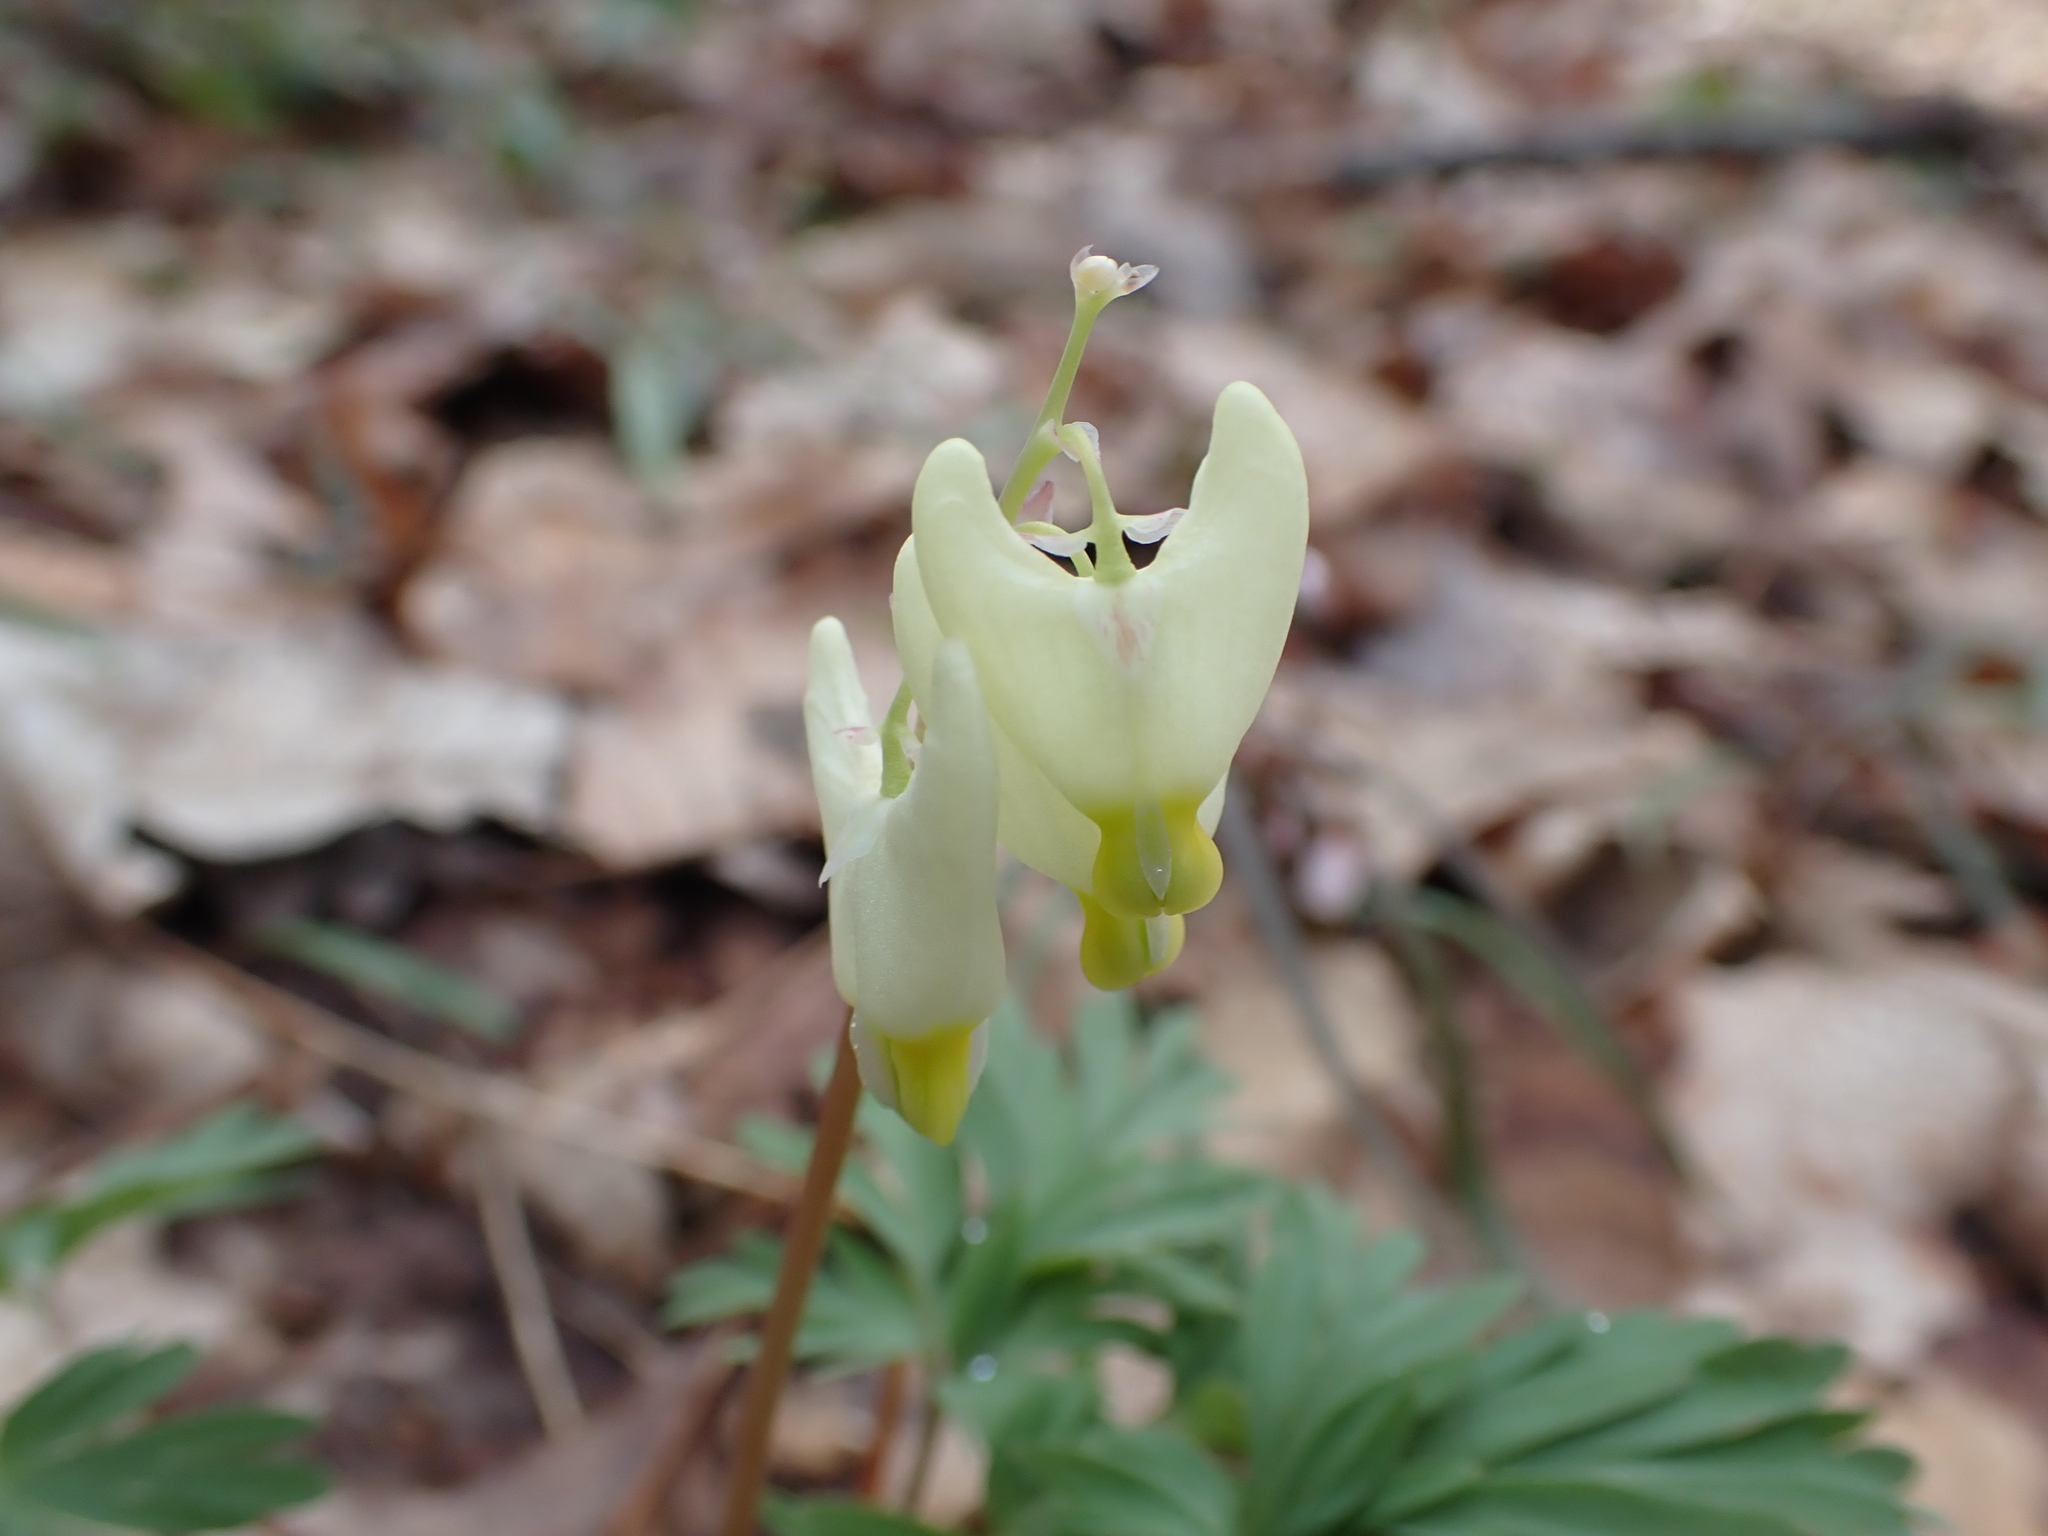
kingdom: Plantae
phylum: Tracheophyta
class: Magnoliopsida
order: Ranunculales
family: Papaveraceae
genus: Dicentra
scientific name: Dicentra cucullaria
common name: Dutchman's breeches
